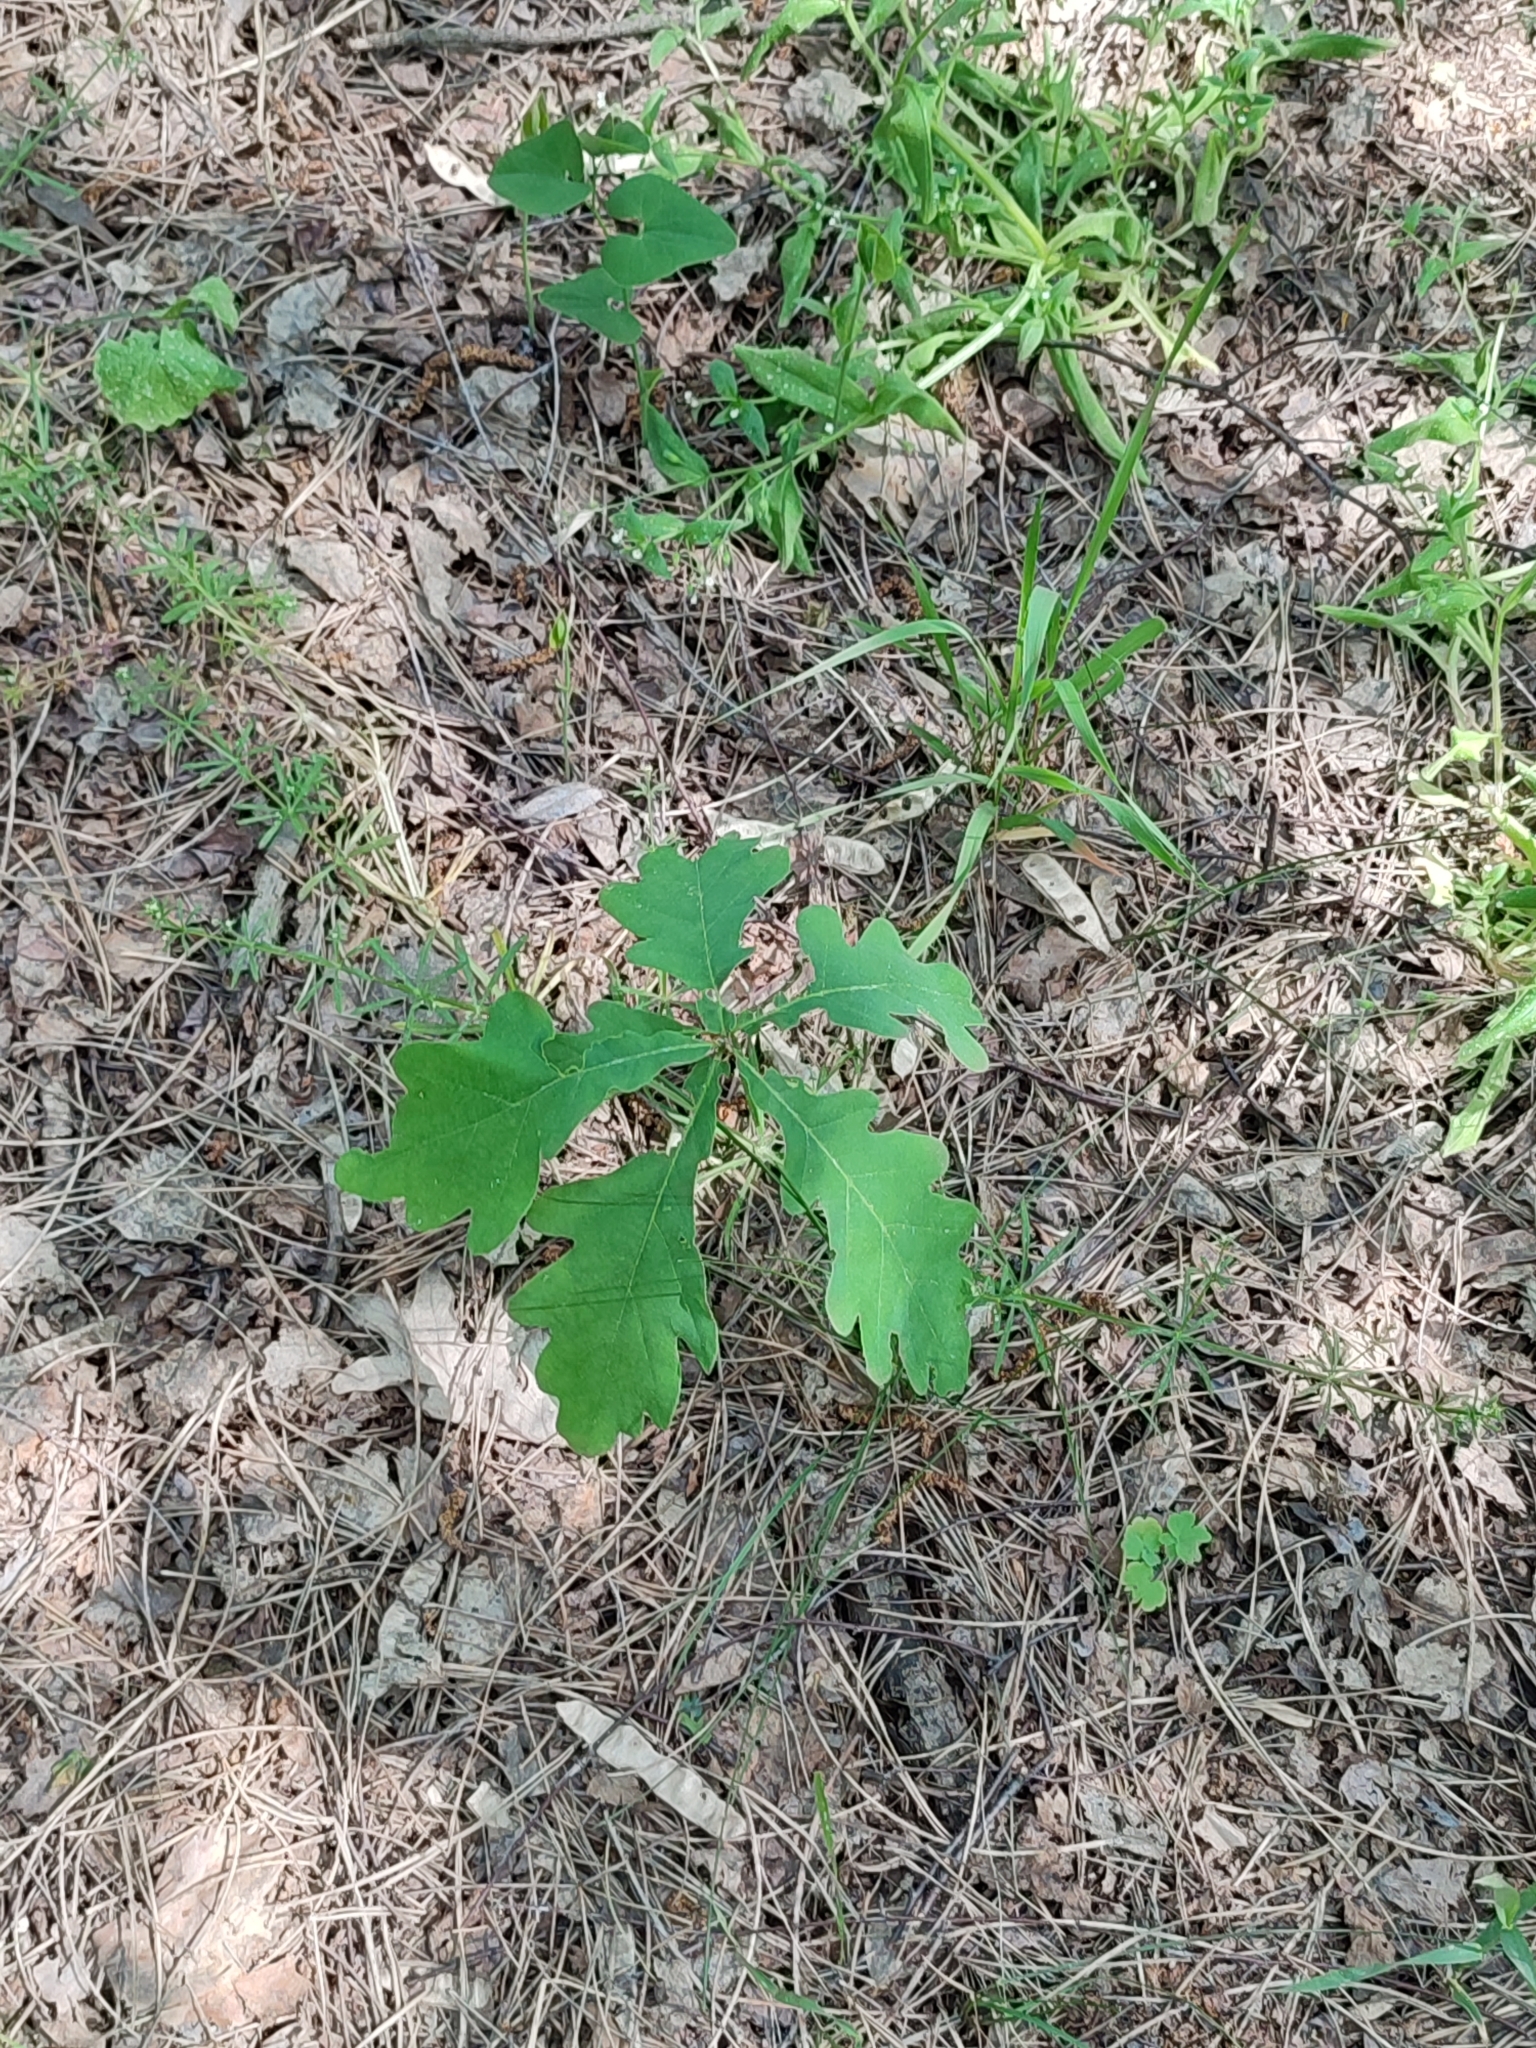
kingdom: Plantae
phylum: Tracheophyta
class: Magnoliopsida
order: Fagales
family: Fagaceae
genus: Quercus
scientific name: Quercus robur
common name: Pedunculate oak
